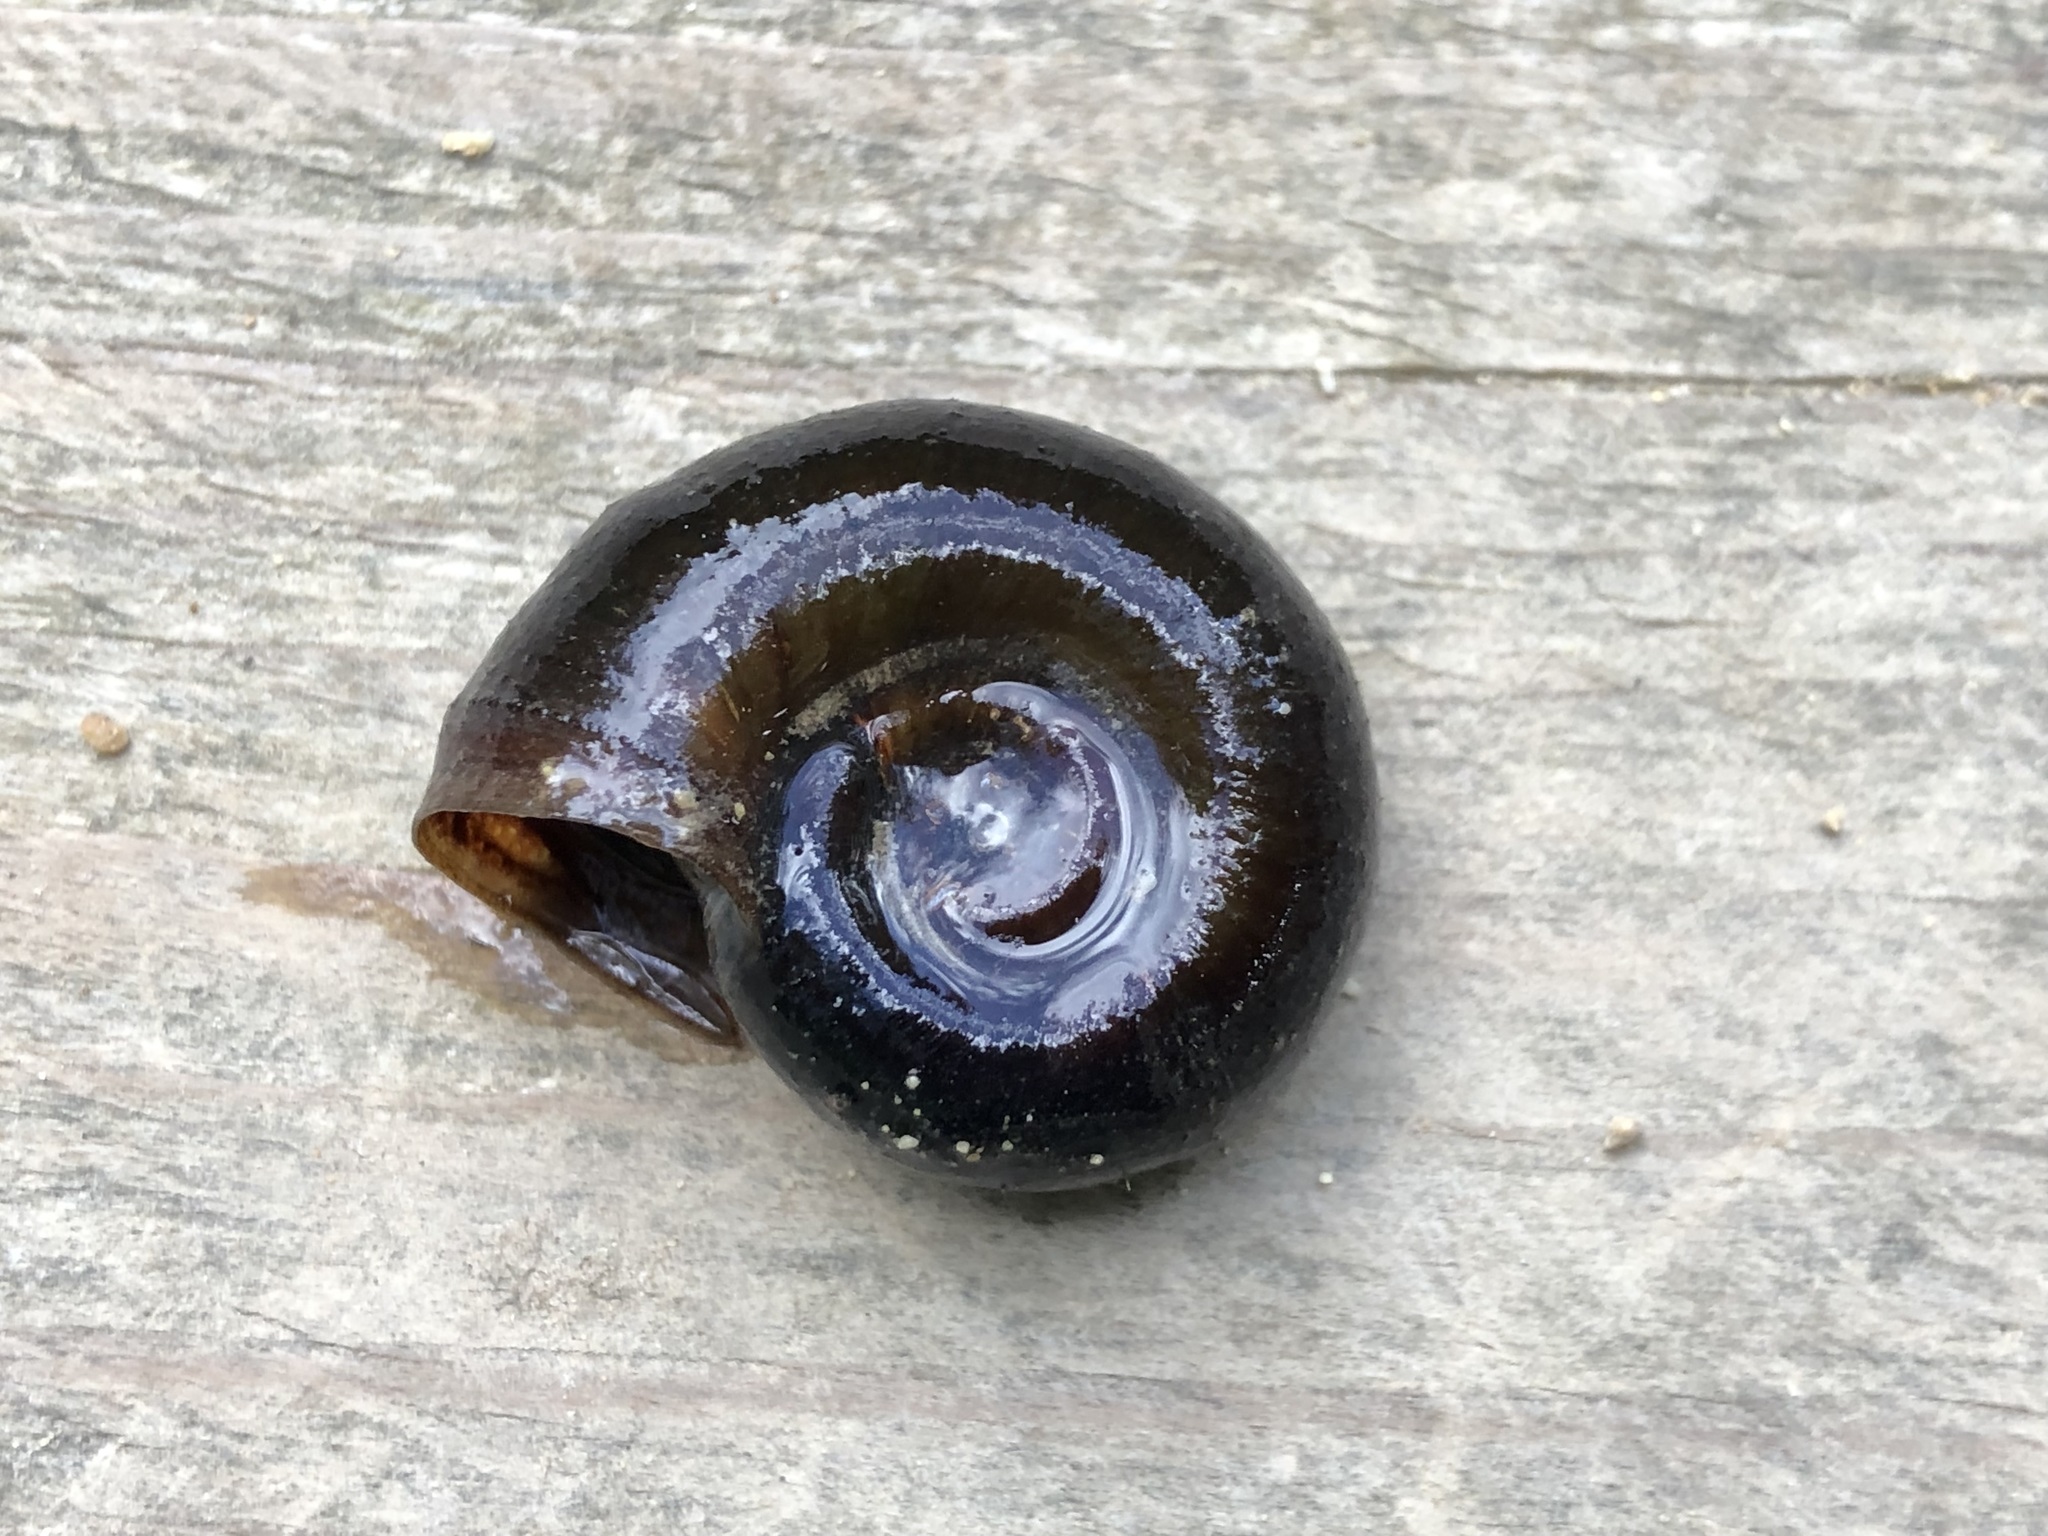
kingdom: Animalia
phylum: Mollusca
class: Gastropoda
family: Planorbidae
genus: Planorbarius
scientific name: Planorbarius corneus
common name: Great ramshorn
